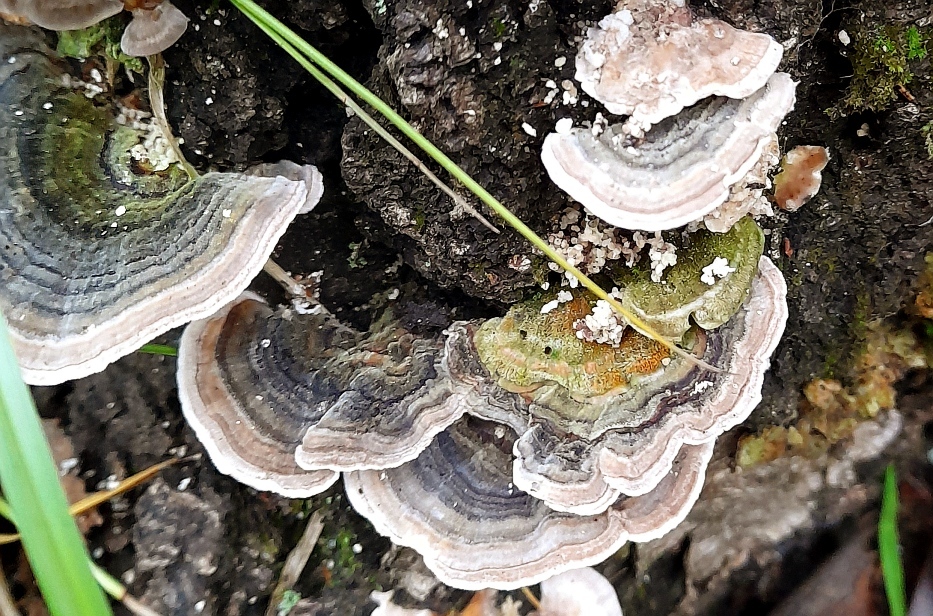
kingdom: Fungi
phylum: Basidiomycota
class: Agaricomycetes
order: Polyporales
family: Polyporaceae
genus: Trametes
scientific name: Trametes
